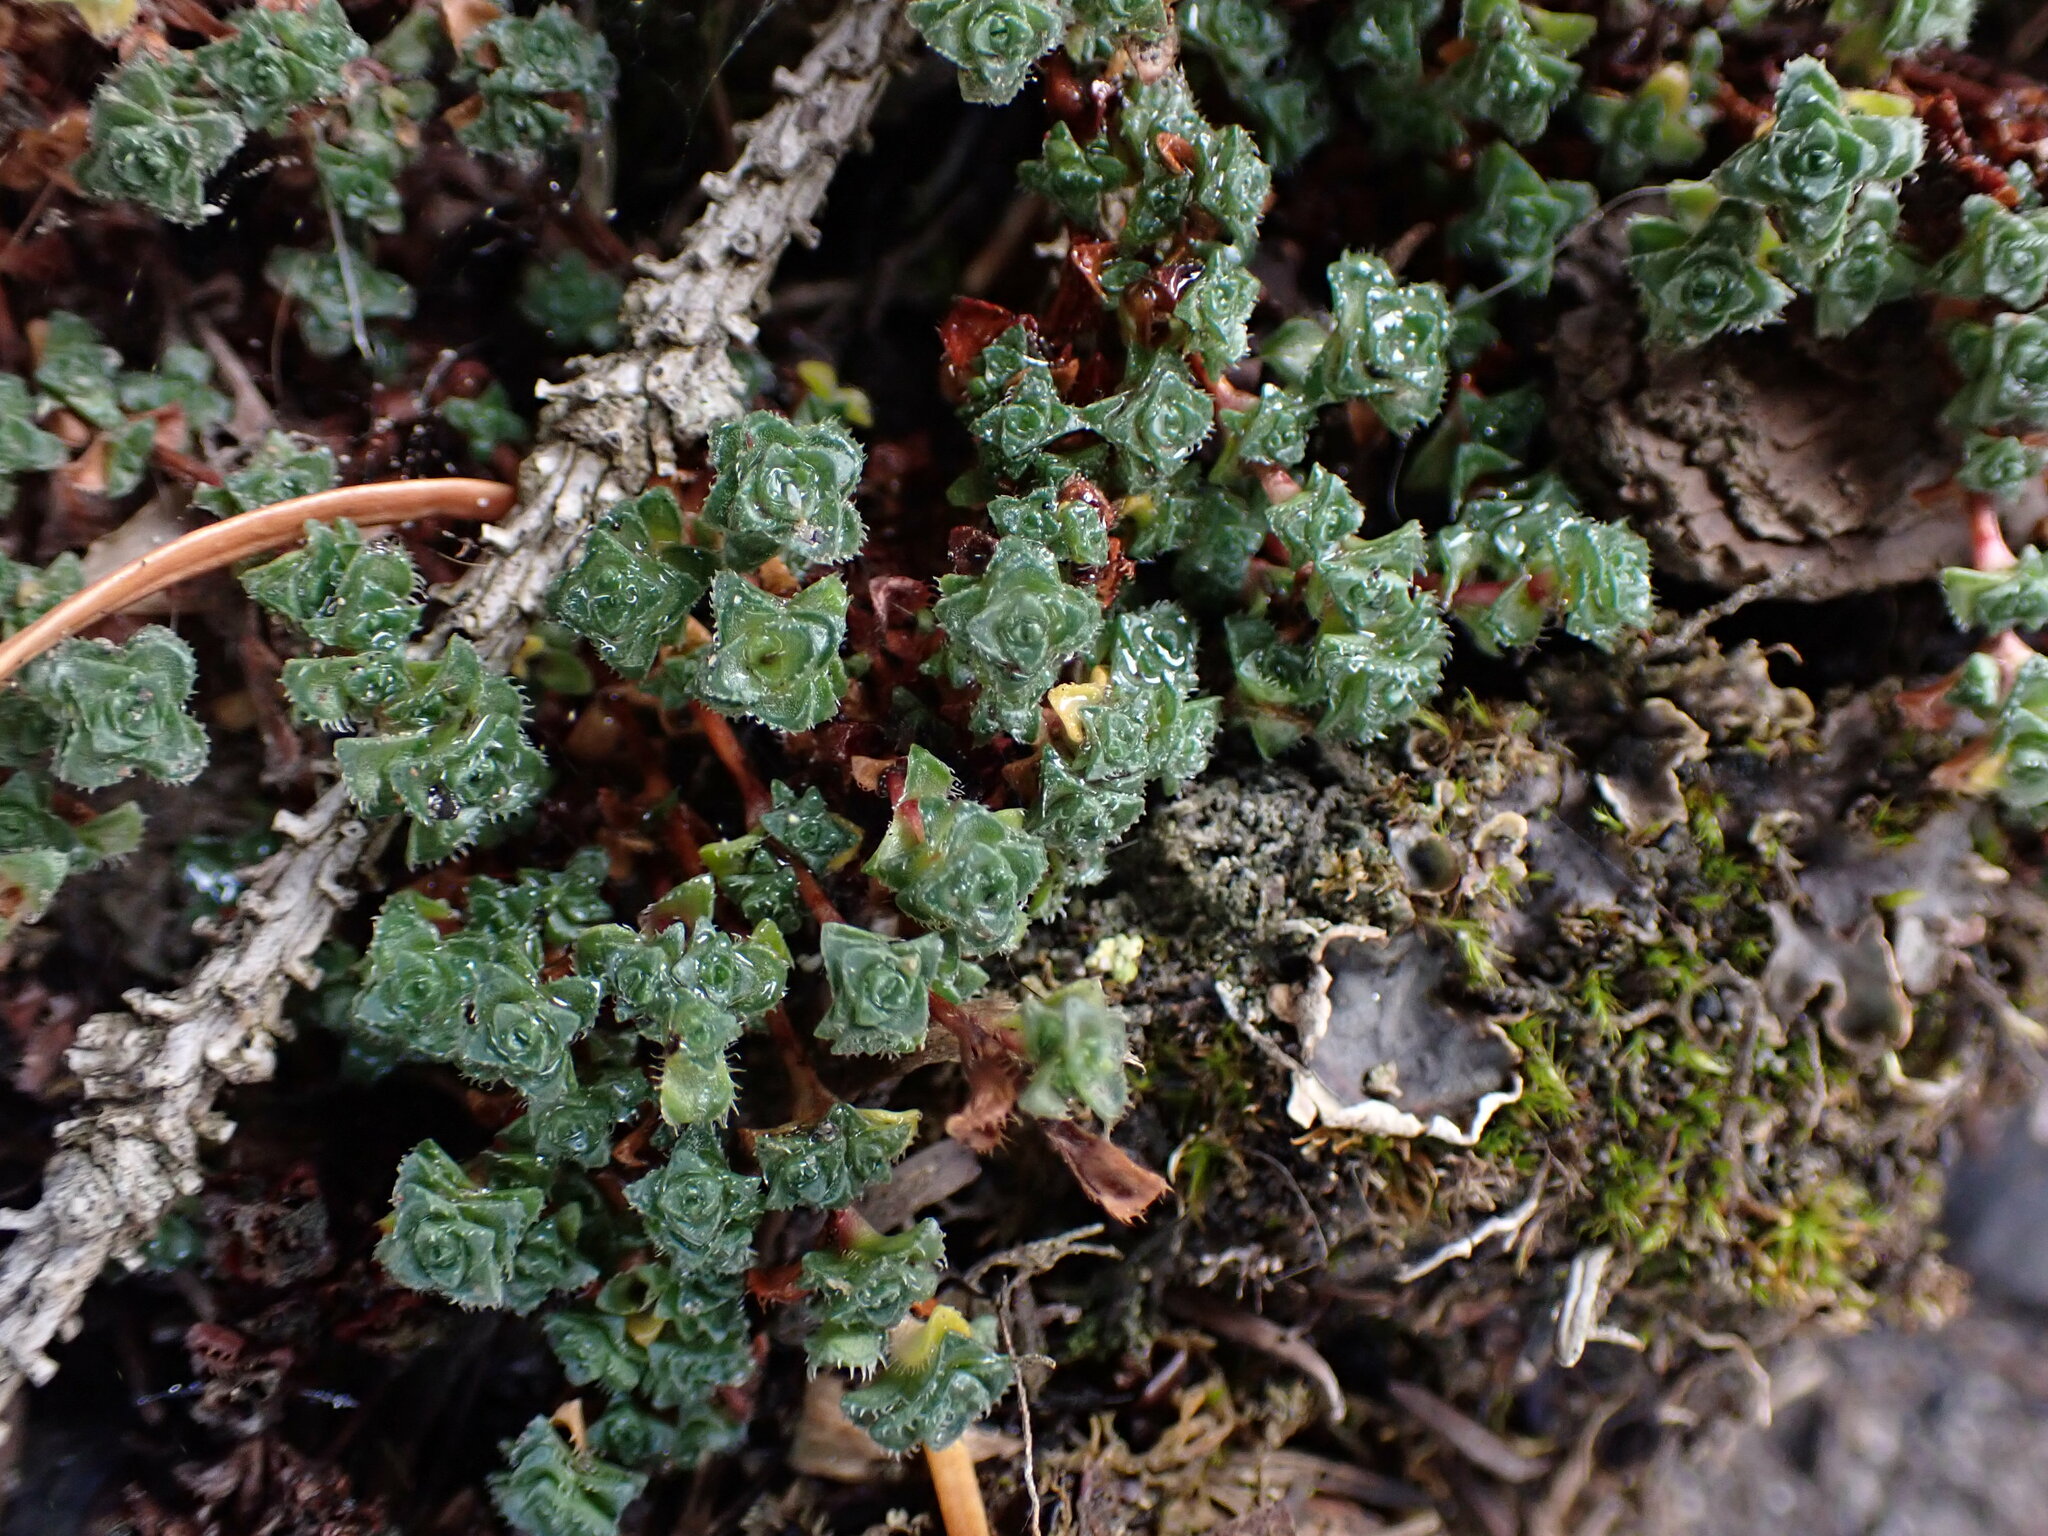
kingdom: Plantae
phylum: Tracheophyta
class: Magnoliopsida
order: Saxifragales
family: Saxifragaceae
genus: Saxifraga
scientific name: Saxifraga oppositifolia
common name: Purple saxifrage
